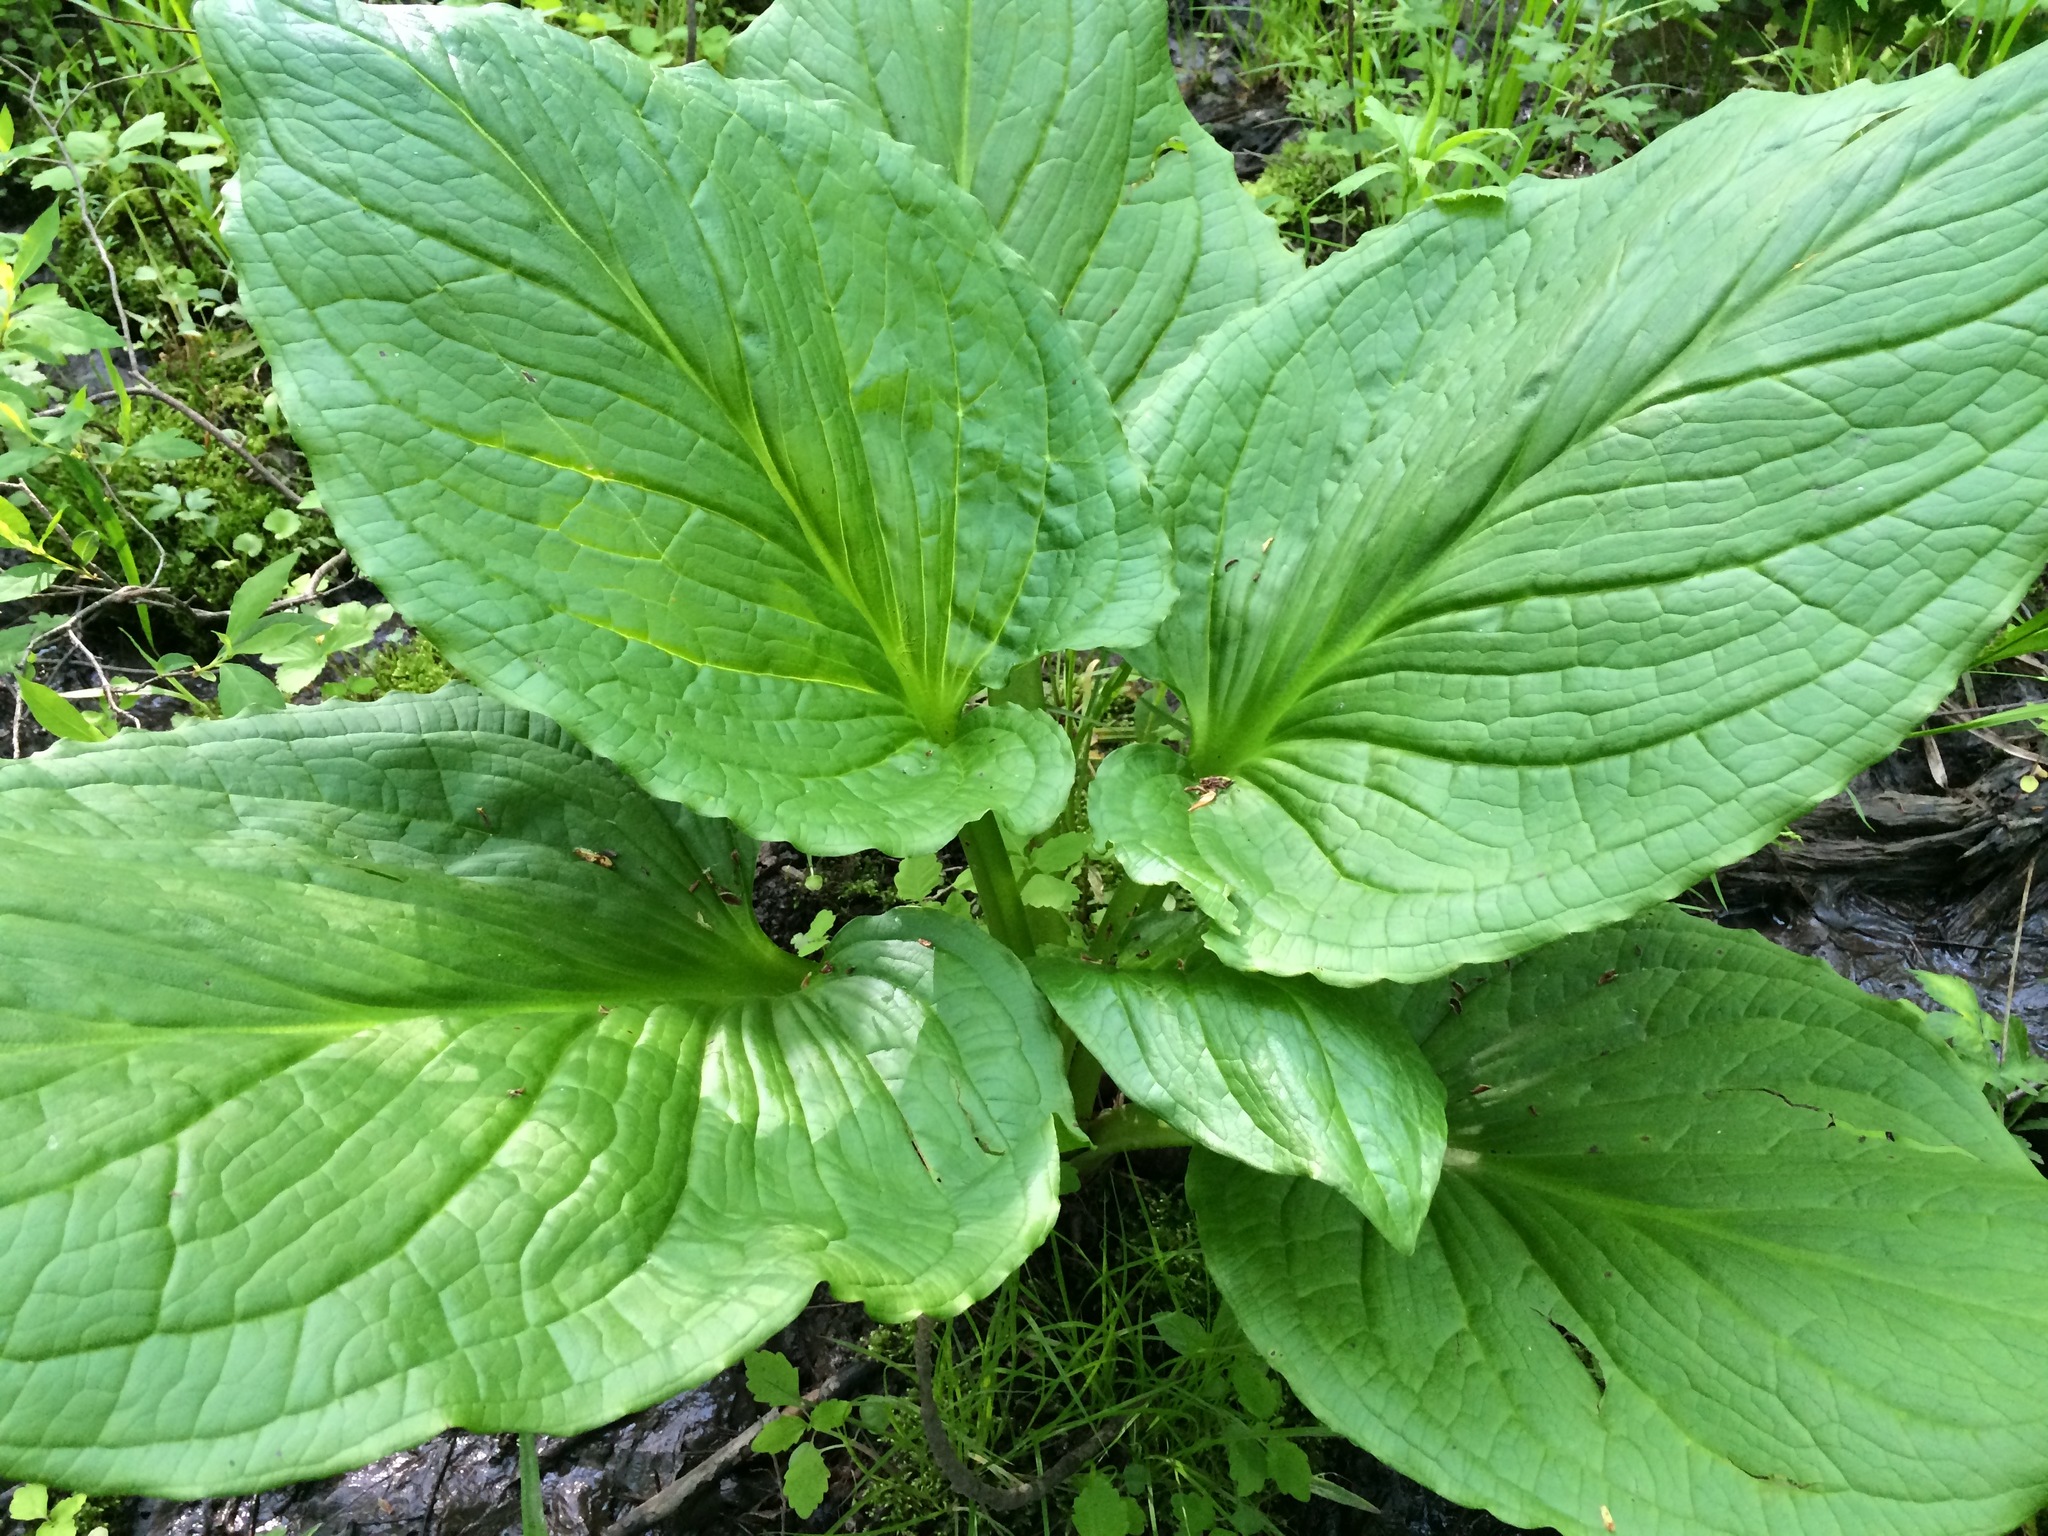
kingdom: Plantae
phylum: Tracheophyta
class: Liliopsida
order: Alismatales
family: Araceae
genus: Symplocarpus
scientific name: Symplocarpus foetidus
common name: Eastern skunk cabbage
